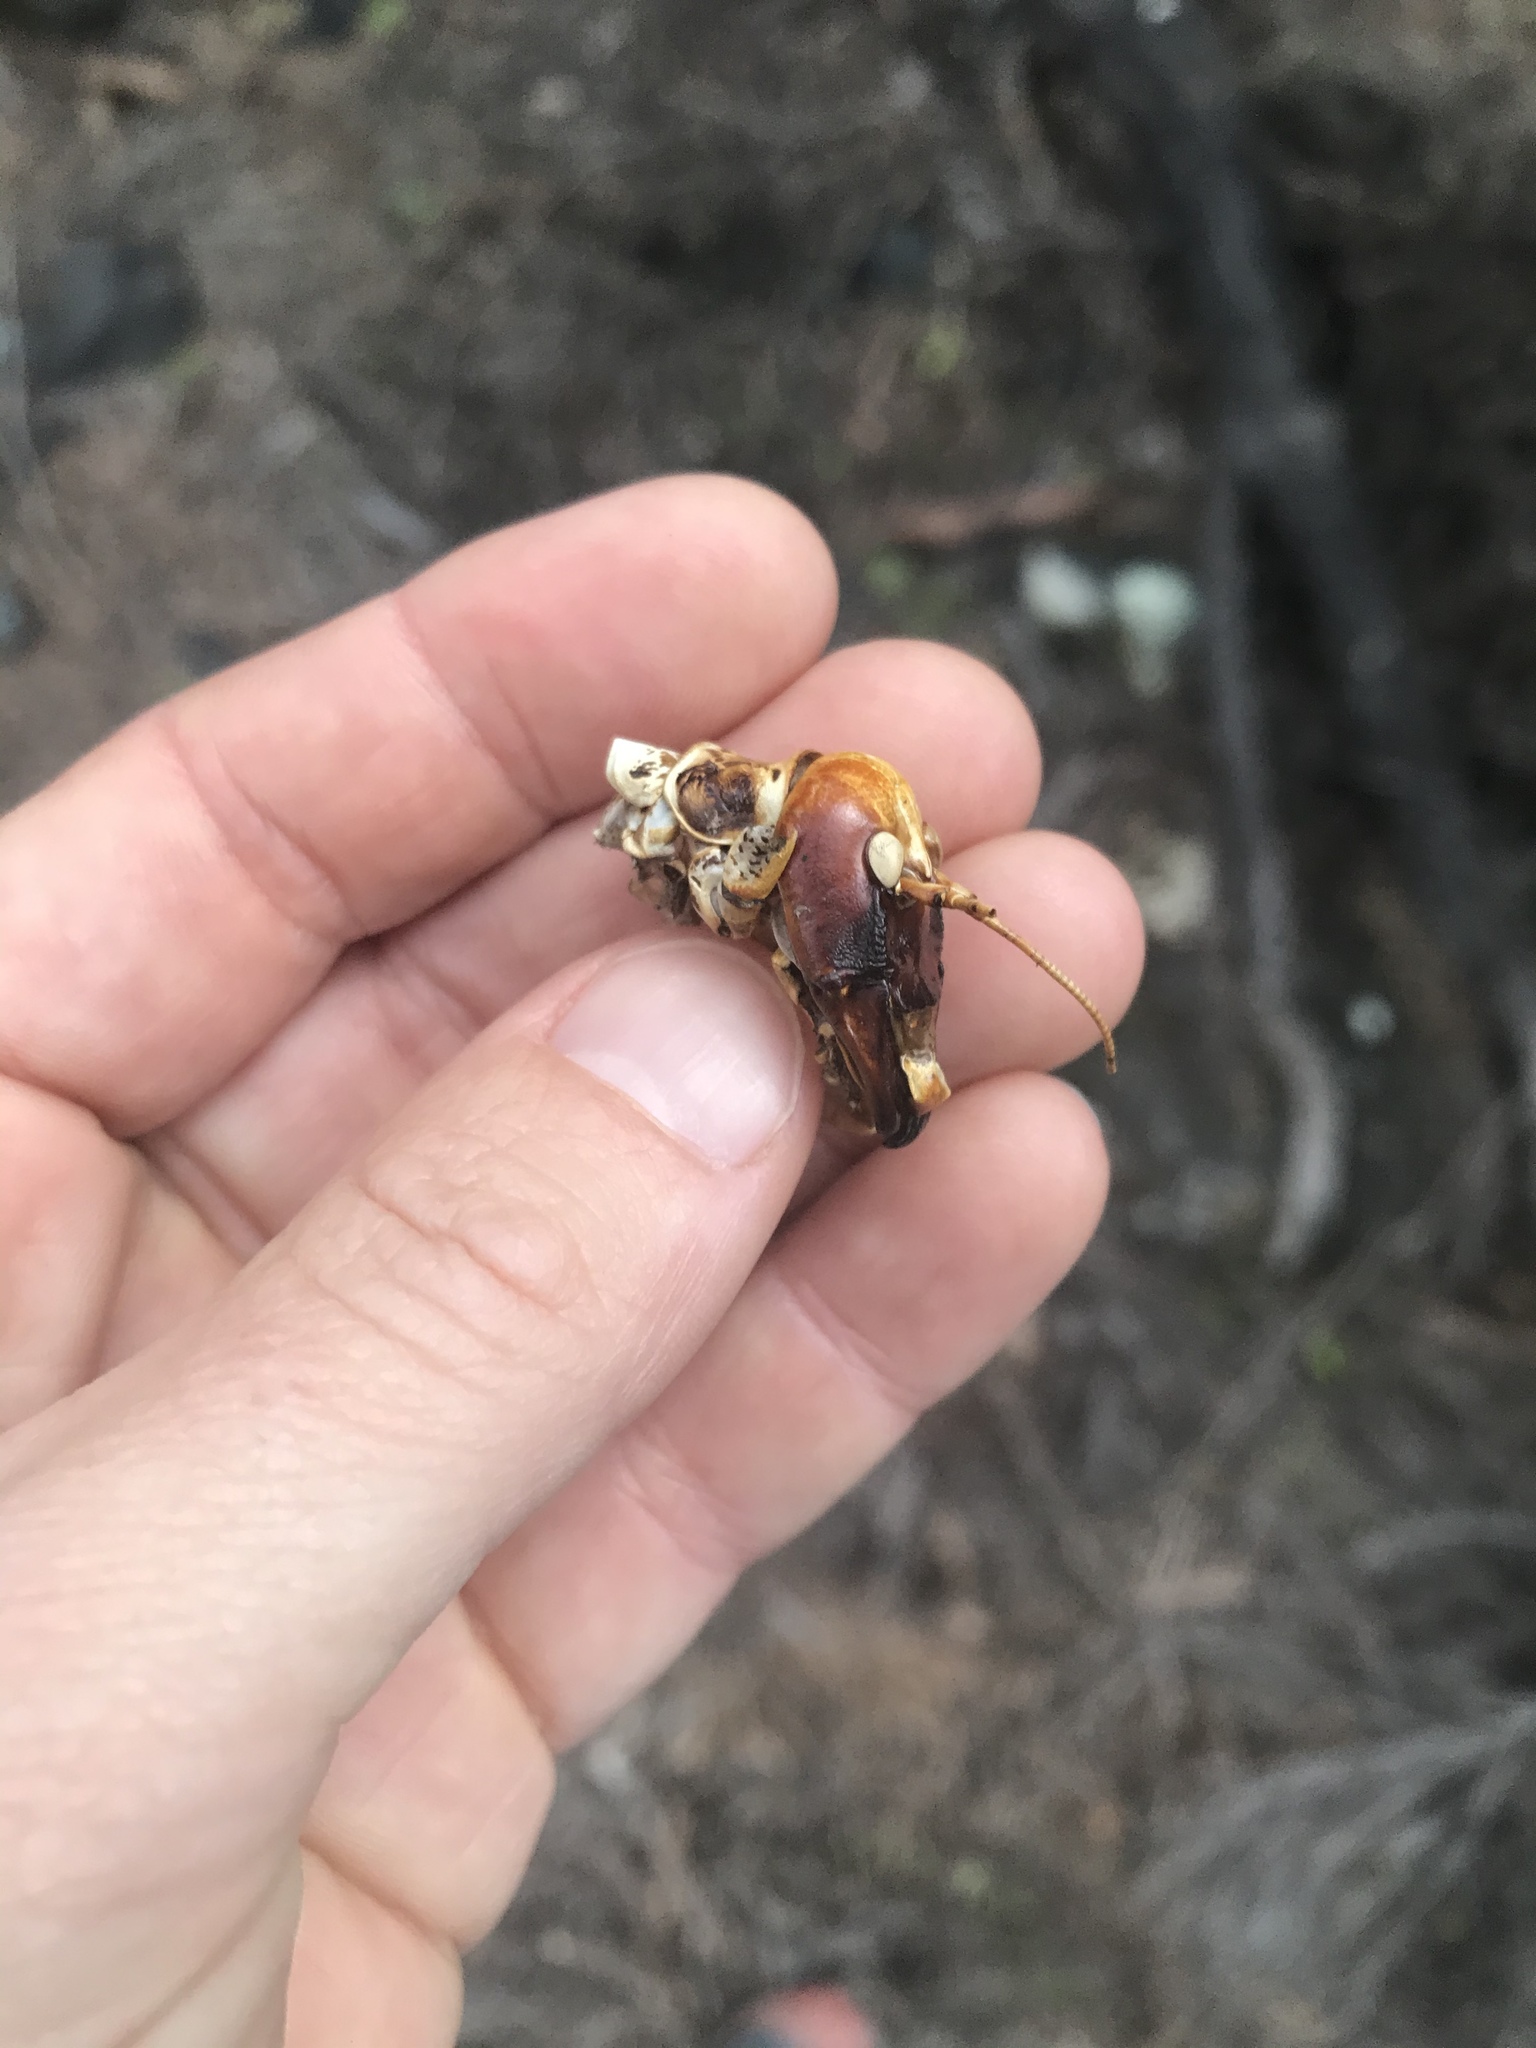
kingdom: Animalia
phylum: Arthropoda
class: Insecta
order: Orthoptera
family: Anostostomatidae
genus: Hemideina
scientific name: Hemideina crassidens
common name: Wellington tree weta
